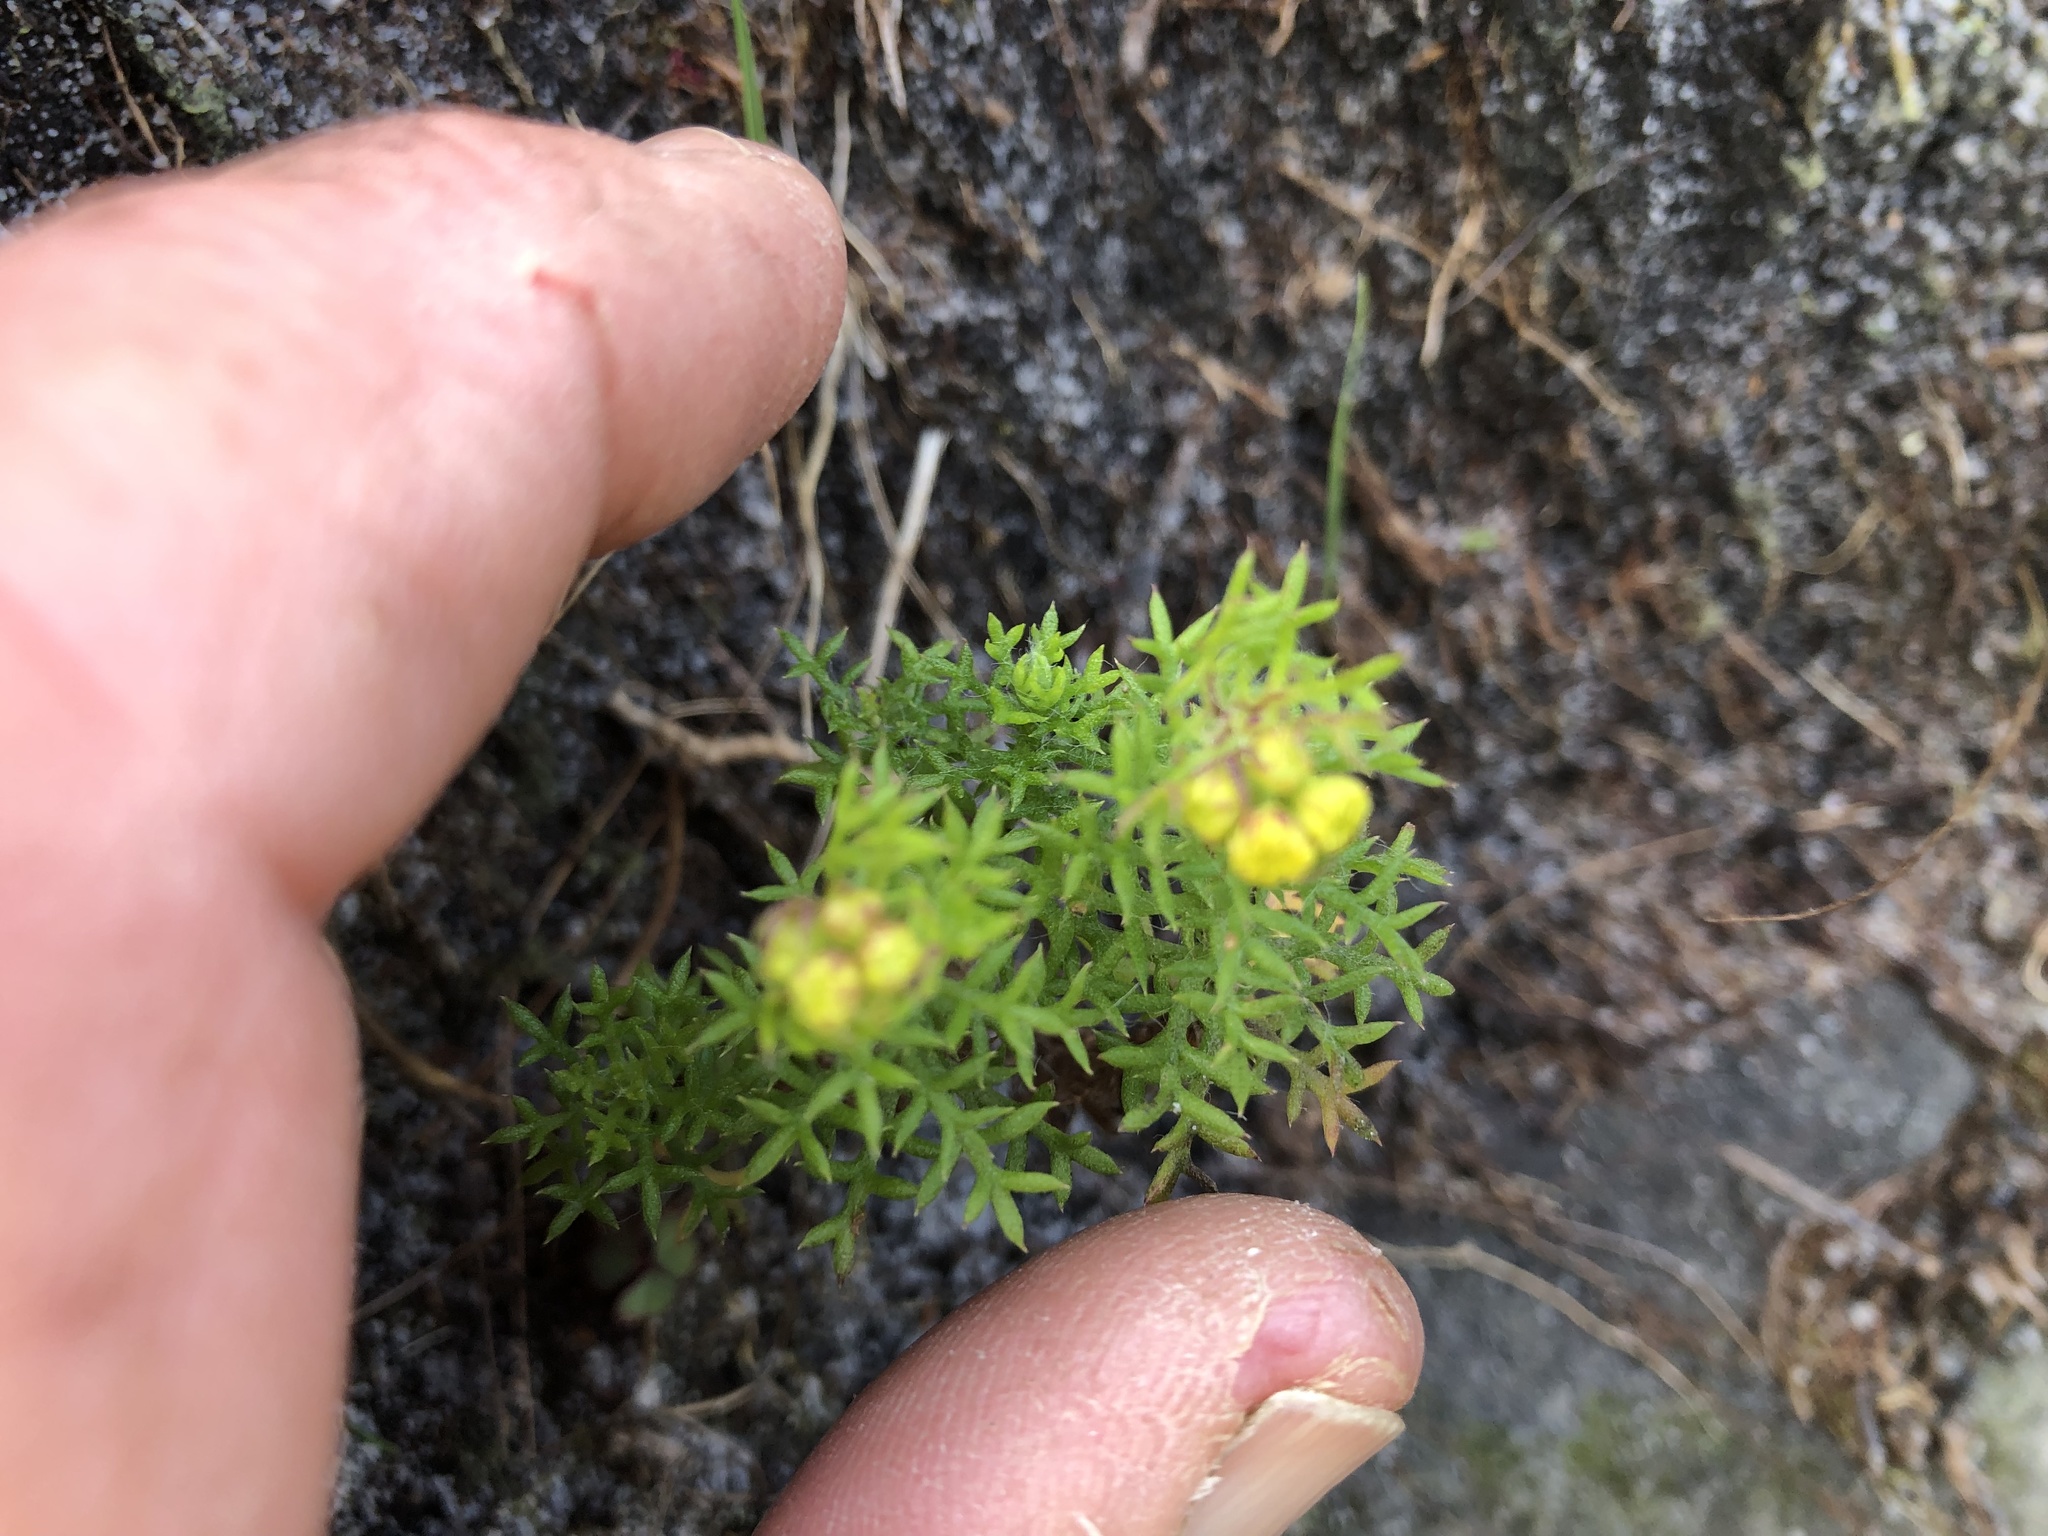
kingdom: Plantae
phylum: Tracheophyta
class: Magnoliopsida
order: Asterales
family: Asteraceae
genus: Hippia
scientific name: Hippia pilosa
